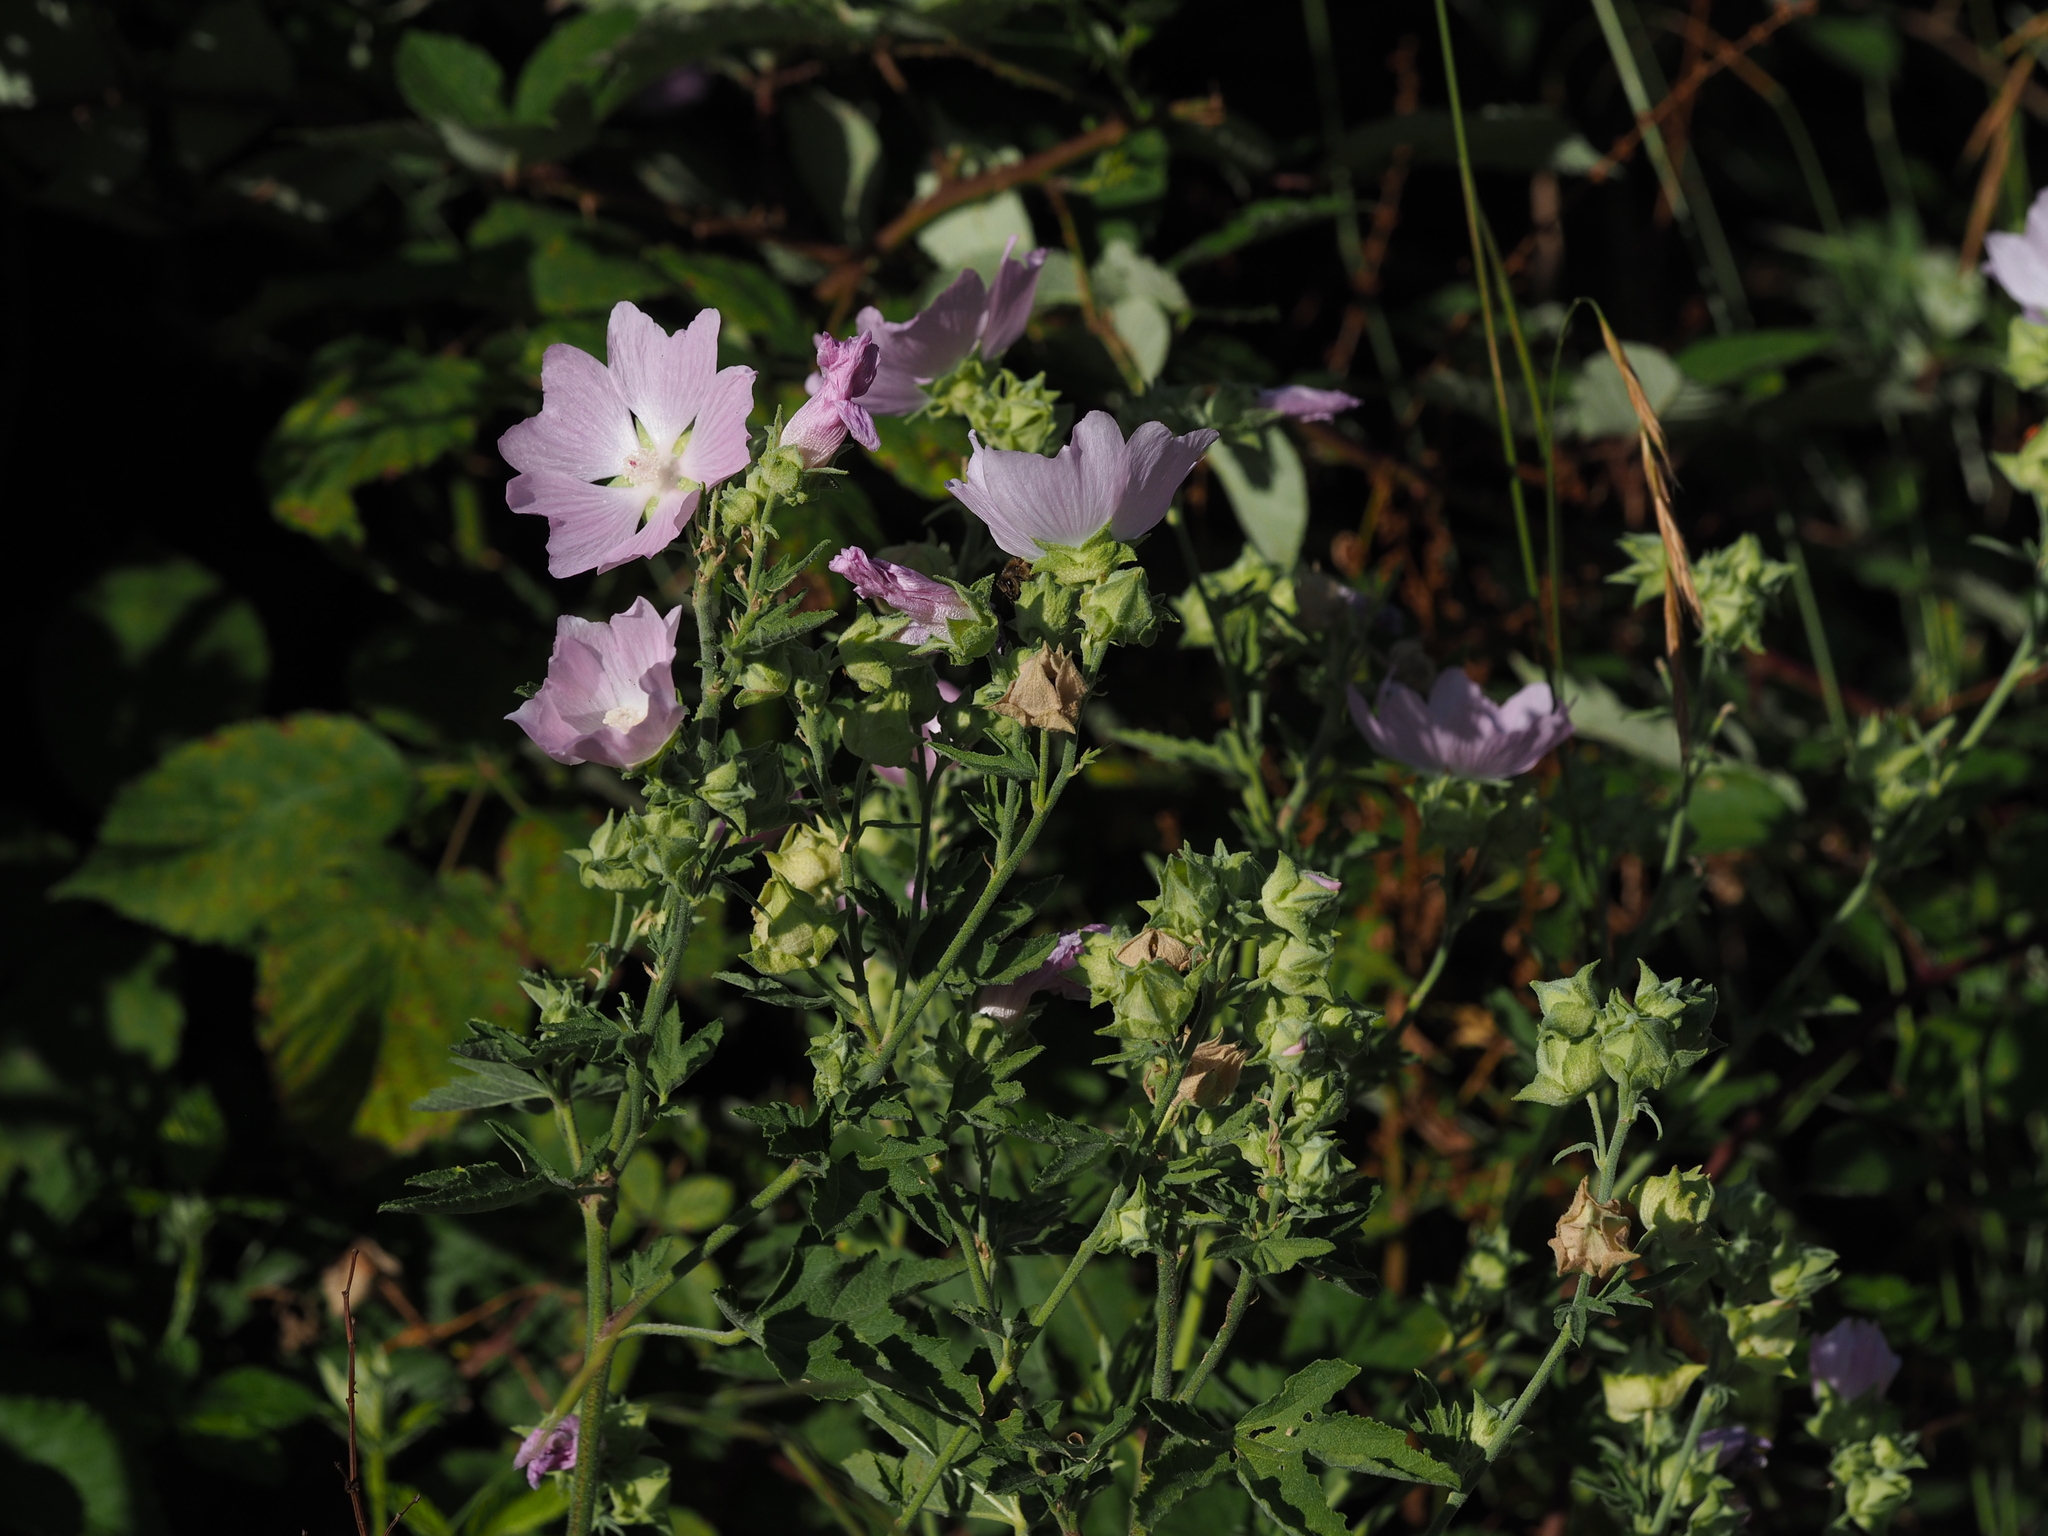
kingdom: Plantae
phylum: Tracheophyta
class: Magnoliopsida
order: Malvales
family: Malvaceae
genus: Malva
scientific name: Malva thuringiaca
